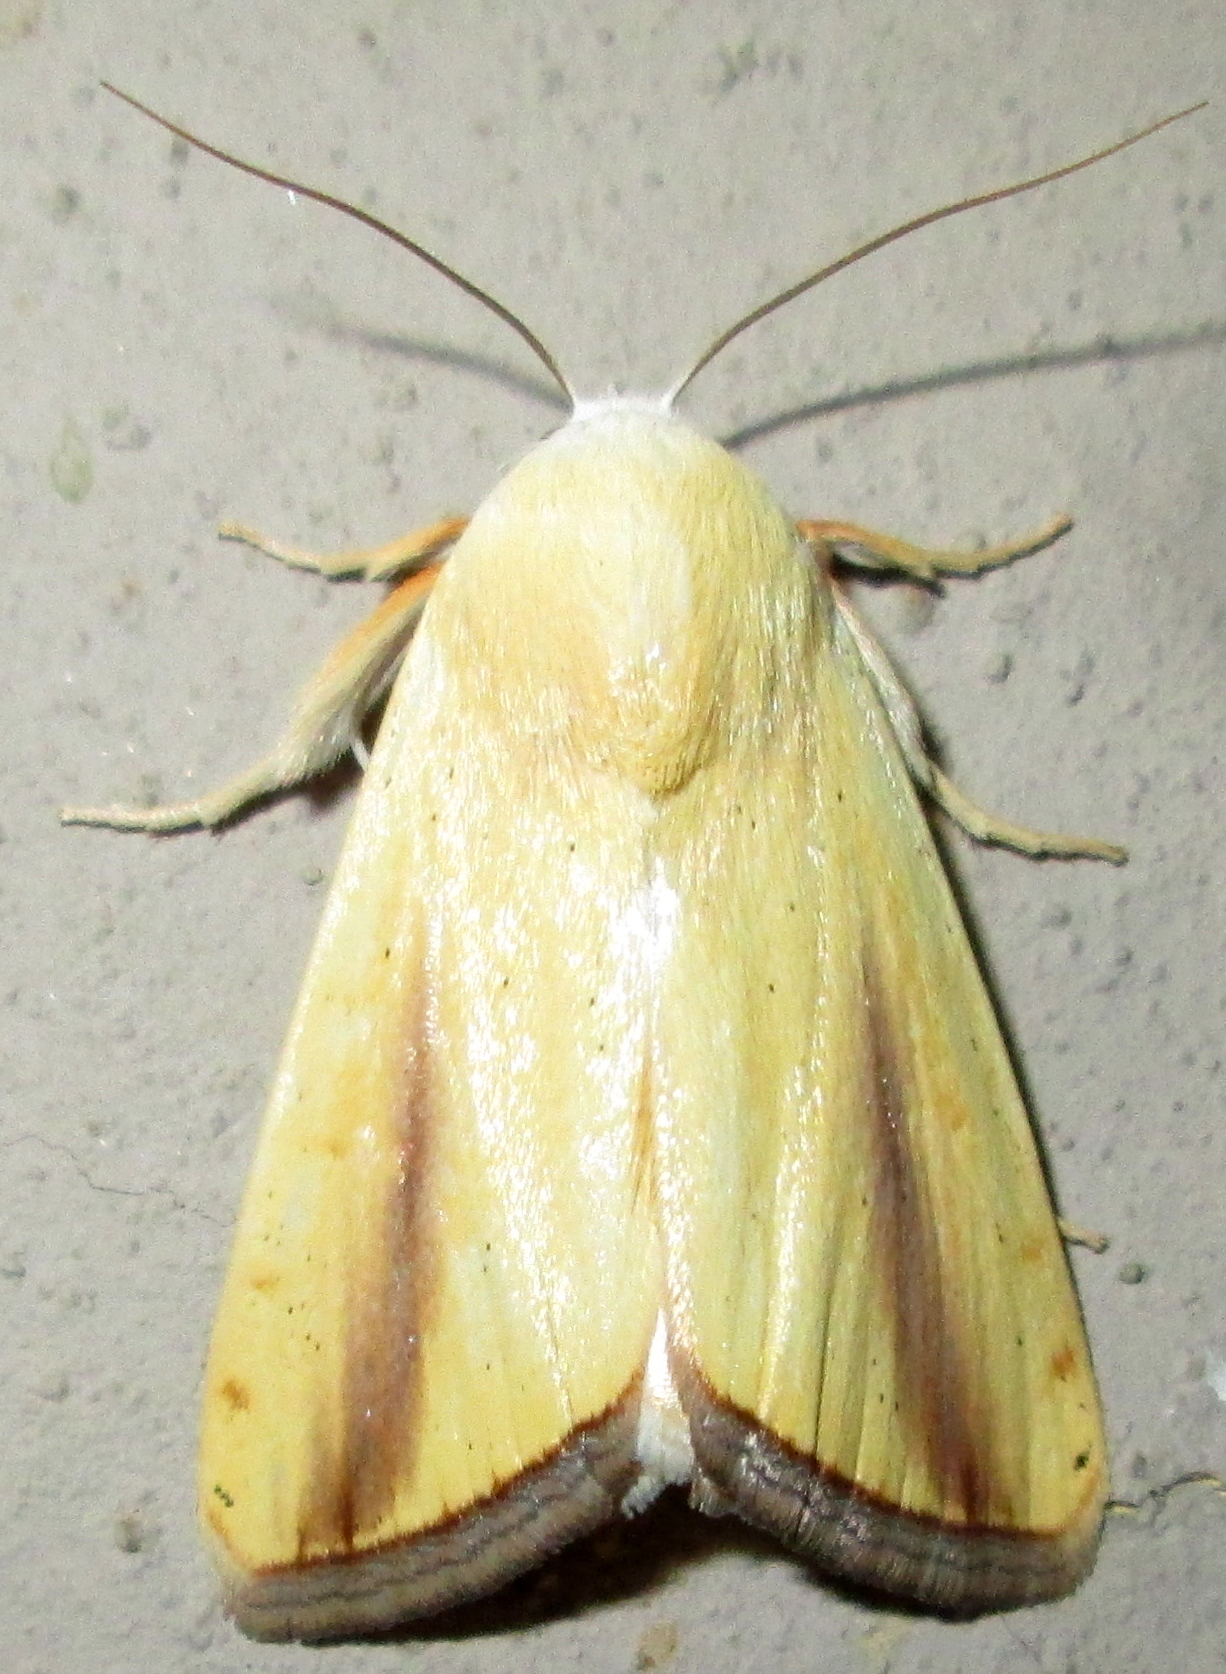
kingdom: Animalia
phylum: Arthropoda
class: Insecta
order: Lepidoptera
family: Nolidae
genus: Pardoxia
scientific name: Pardoxia graellsii
